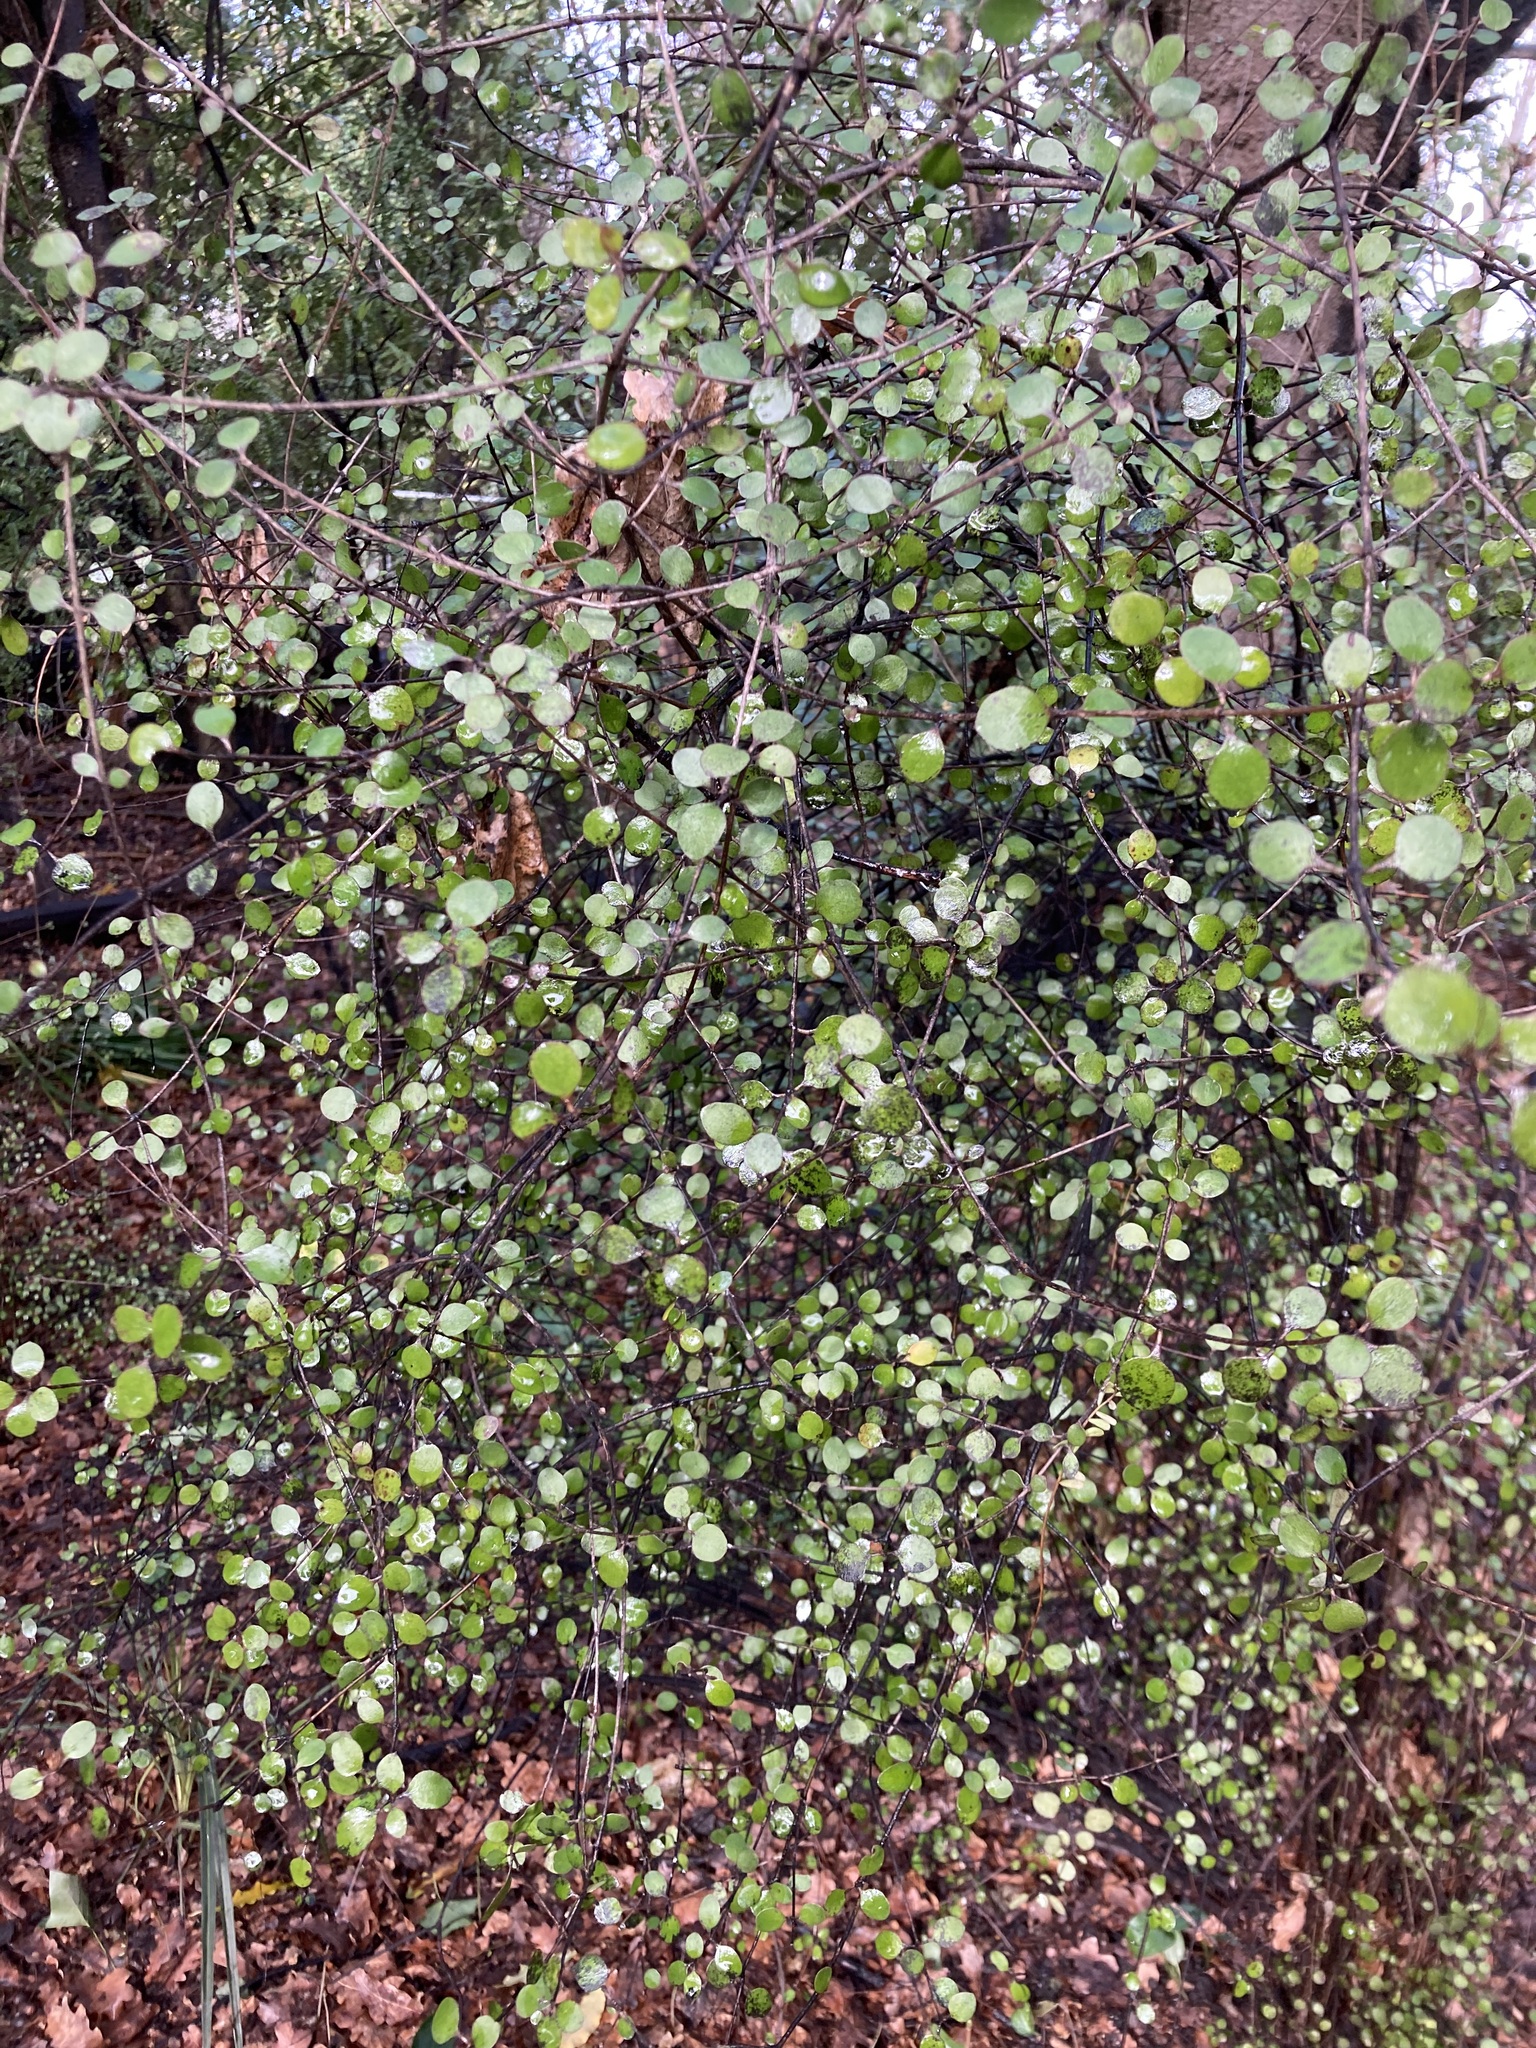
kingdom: Plantae
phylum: Tracheophyta
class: Magnoliopsida
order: Gentianales
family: Rubiaceae
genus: Coprosma
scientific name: Coprosma crassifolia
